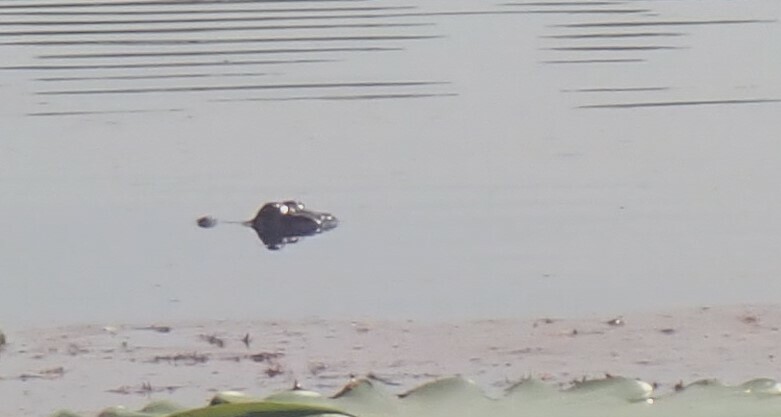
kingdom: Animalia
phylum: Chordata
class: Crocodylia
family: Alligatoridae
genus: Alligator
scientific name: Alligator mississippiensis
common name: American alligator
